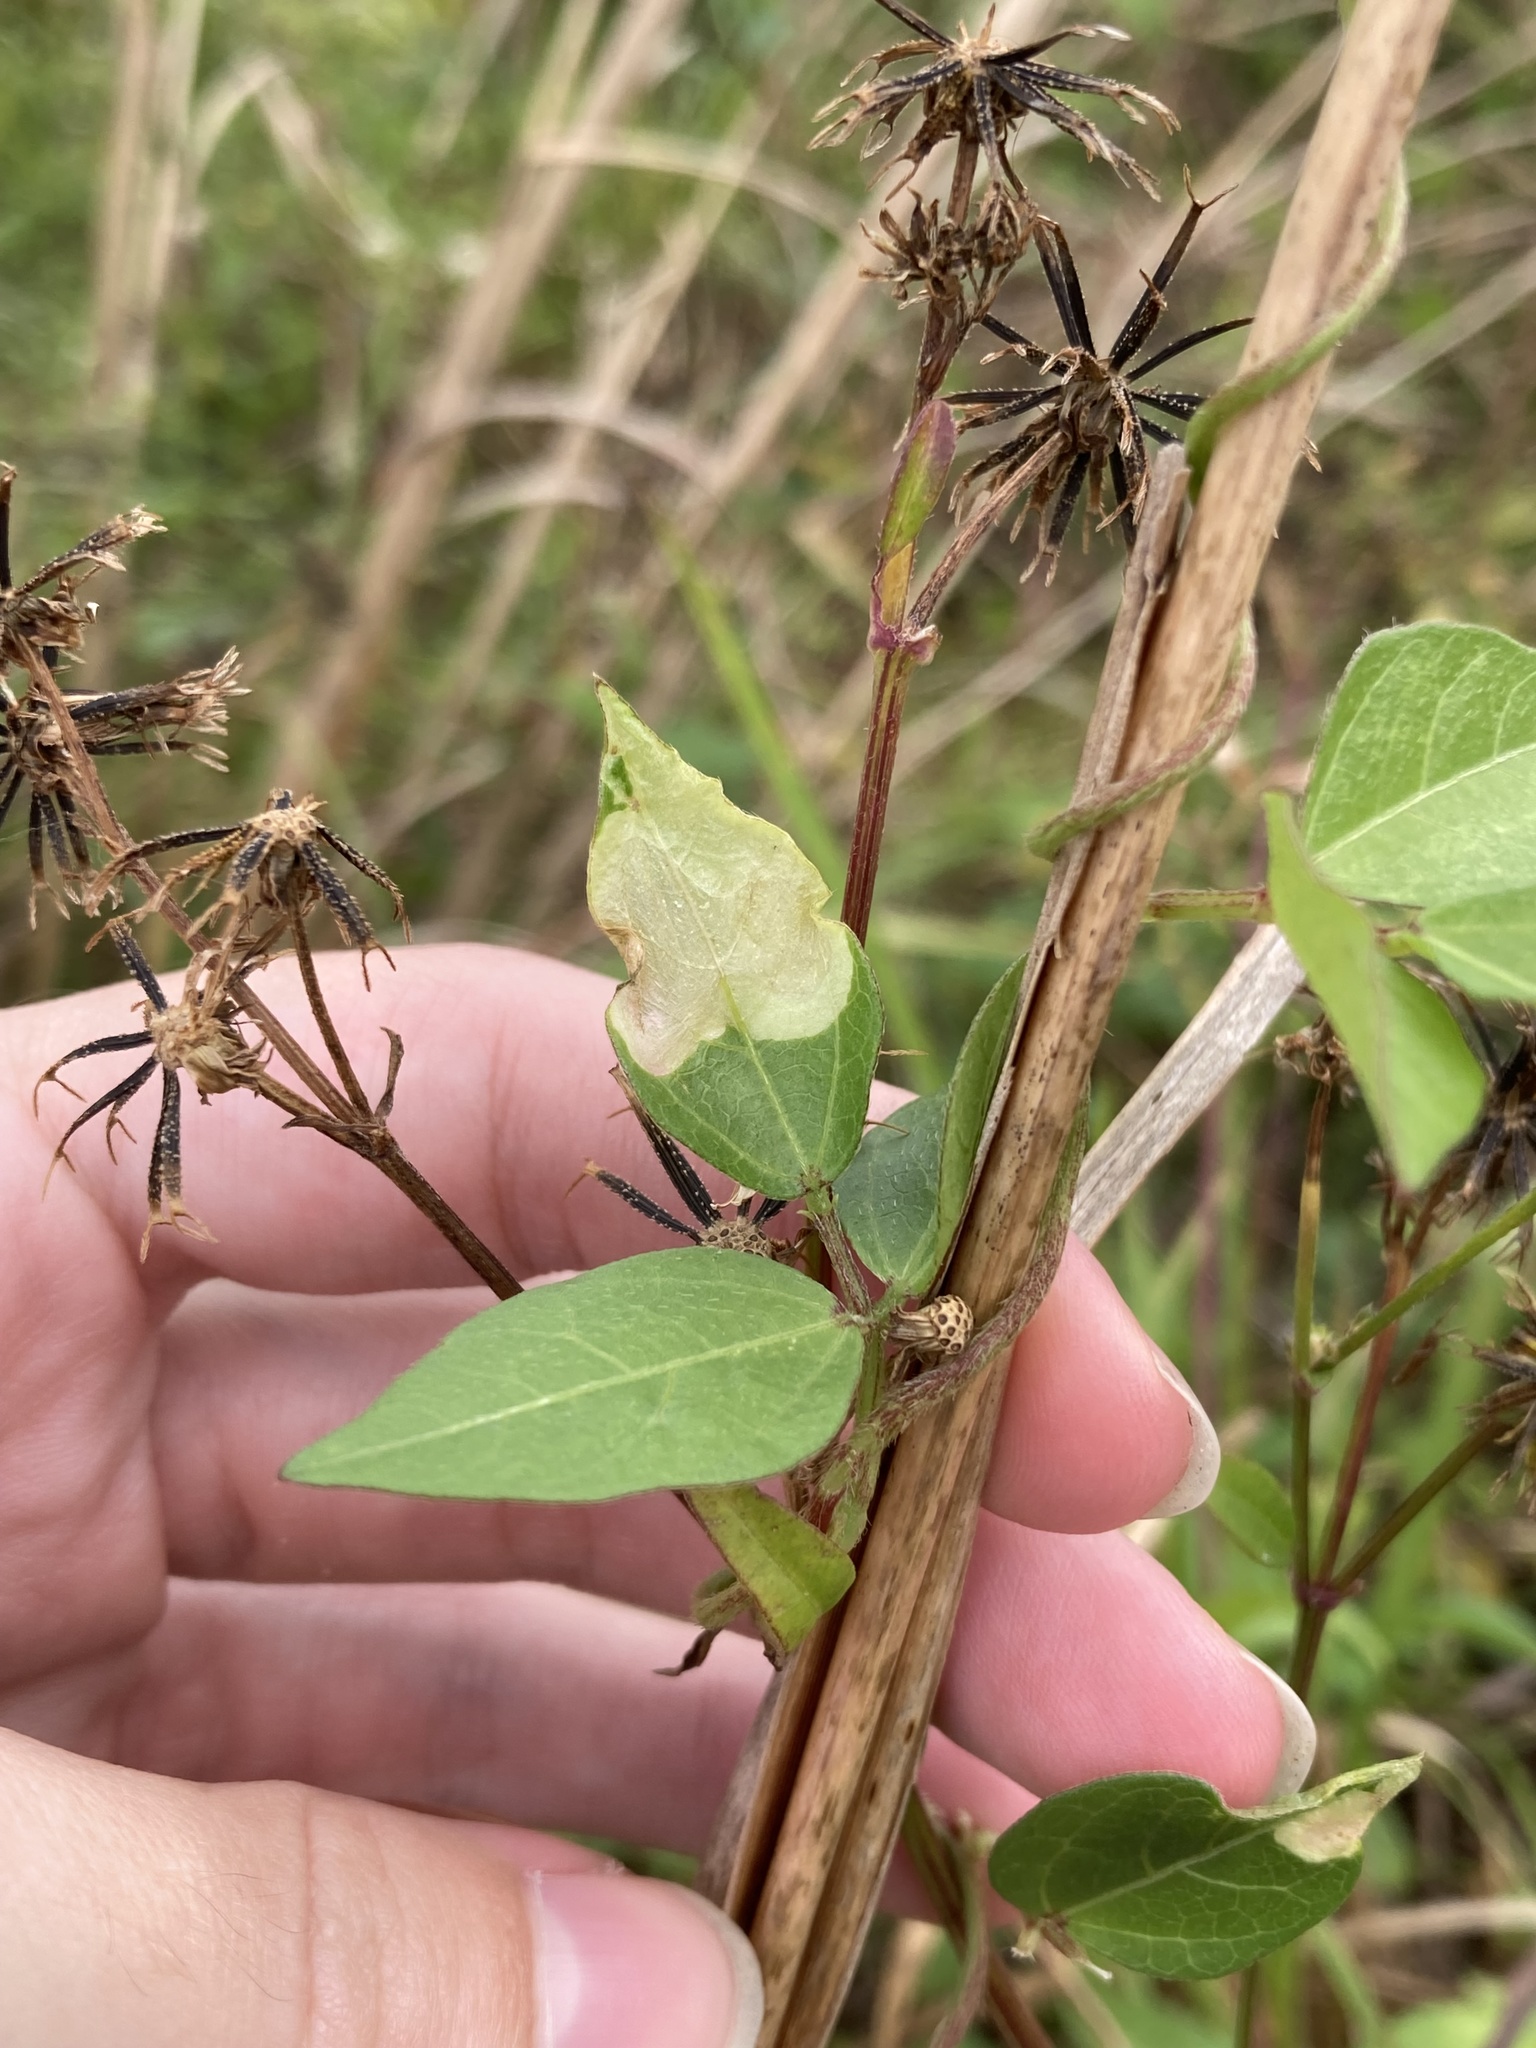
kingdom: Plantae
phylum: Tracheophyta
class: Magnoliopsida
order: Fabales
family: Fabaceae
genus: Vigna
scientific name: Vigna luteola
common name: Hairypod cowpea
